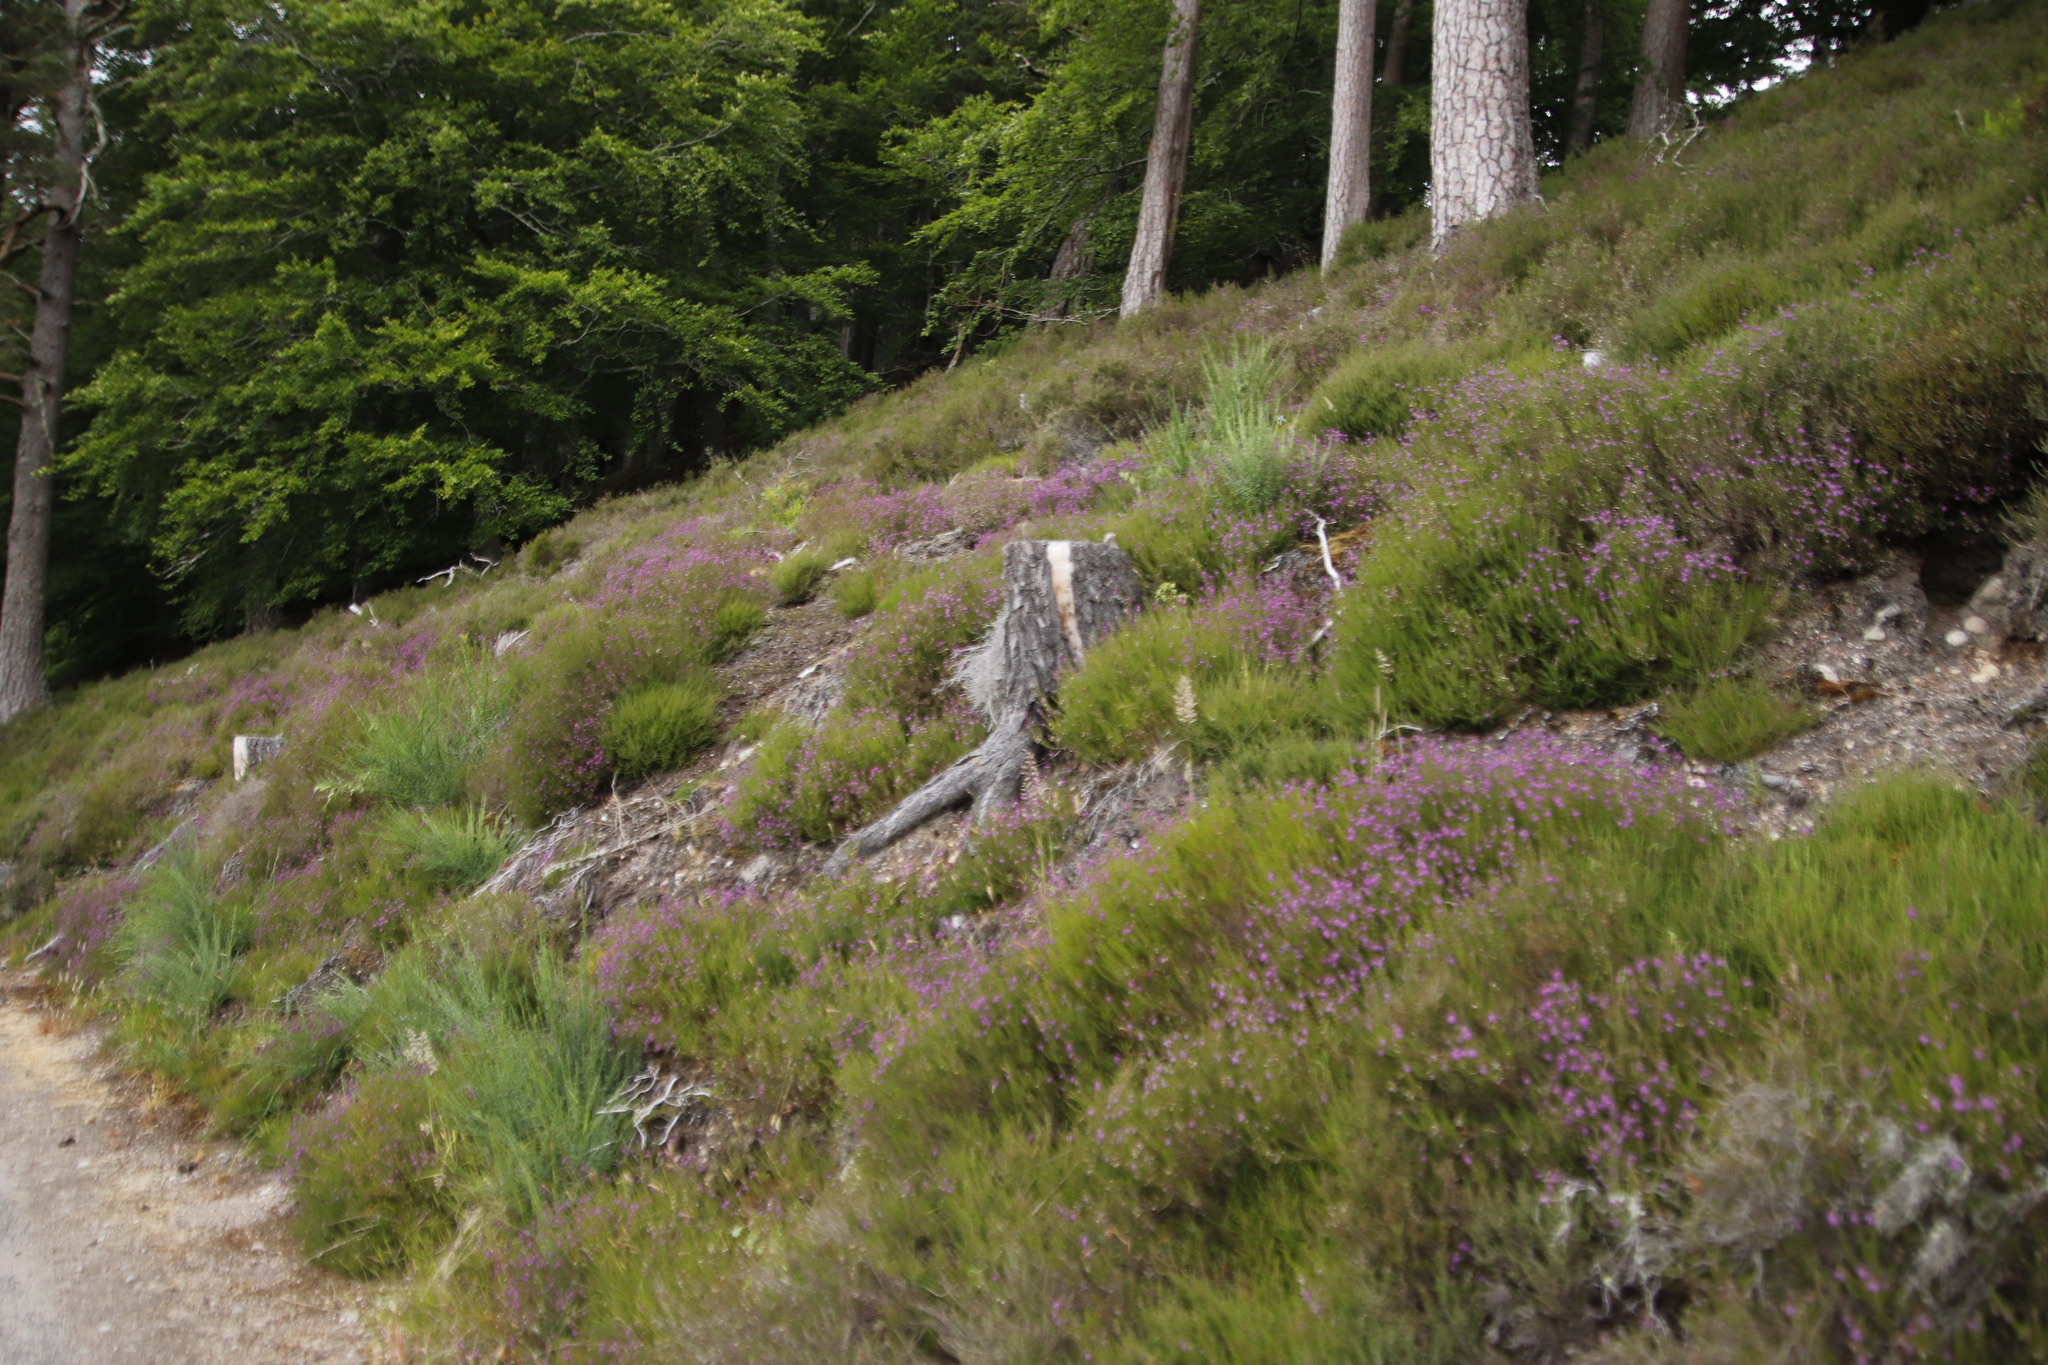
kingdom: Plantae
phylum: Tracheophyta
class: Magnoliopsida
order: Ericales
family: Ericaceae
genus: Calluna
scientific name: Calluna vulgaris
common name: Heather
